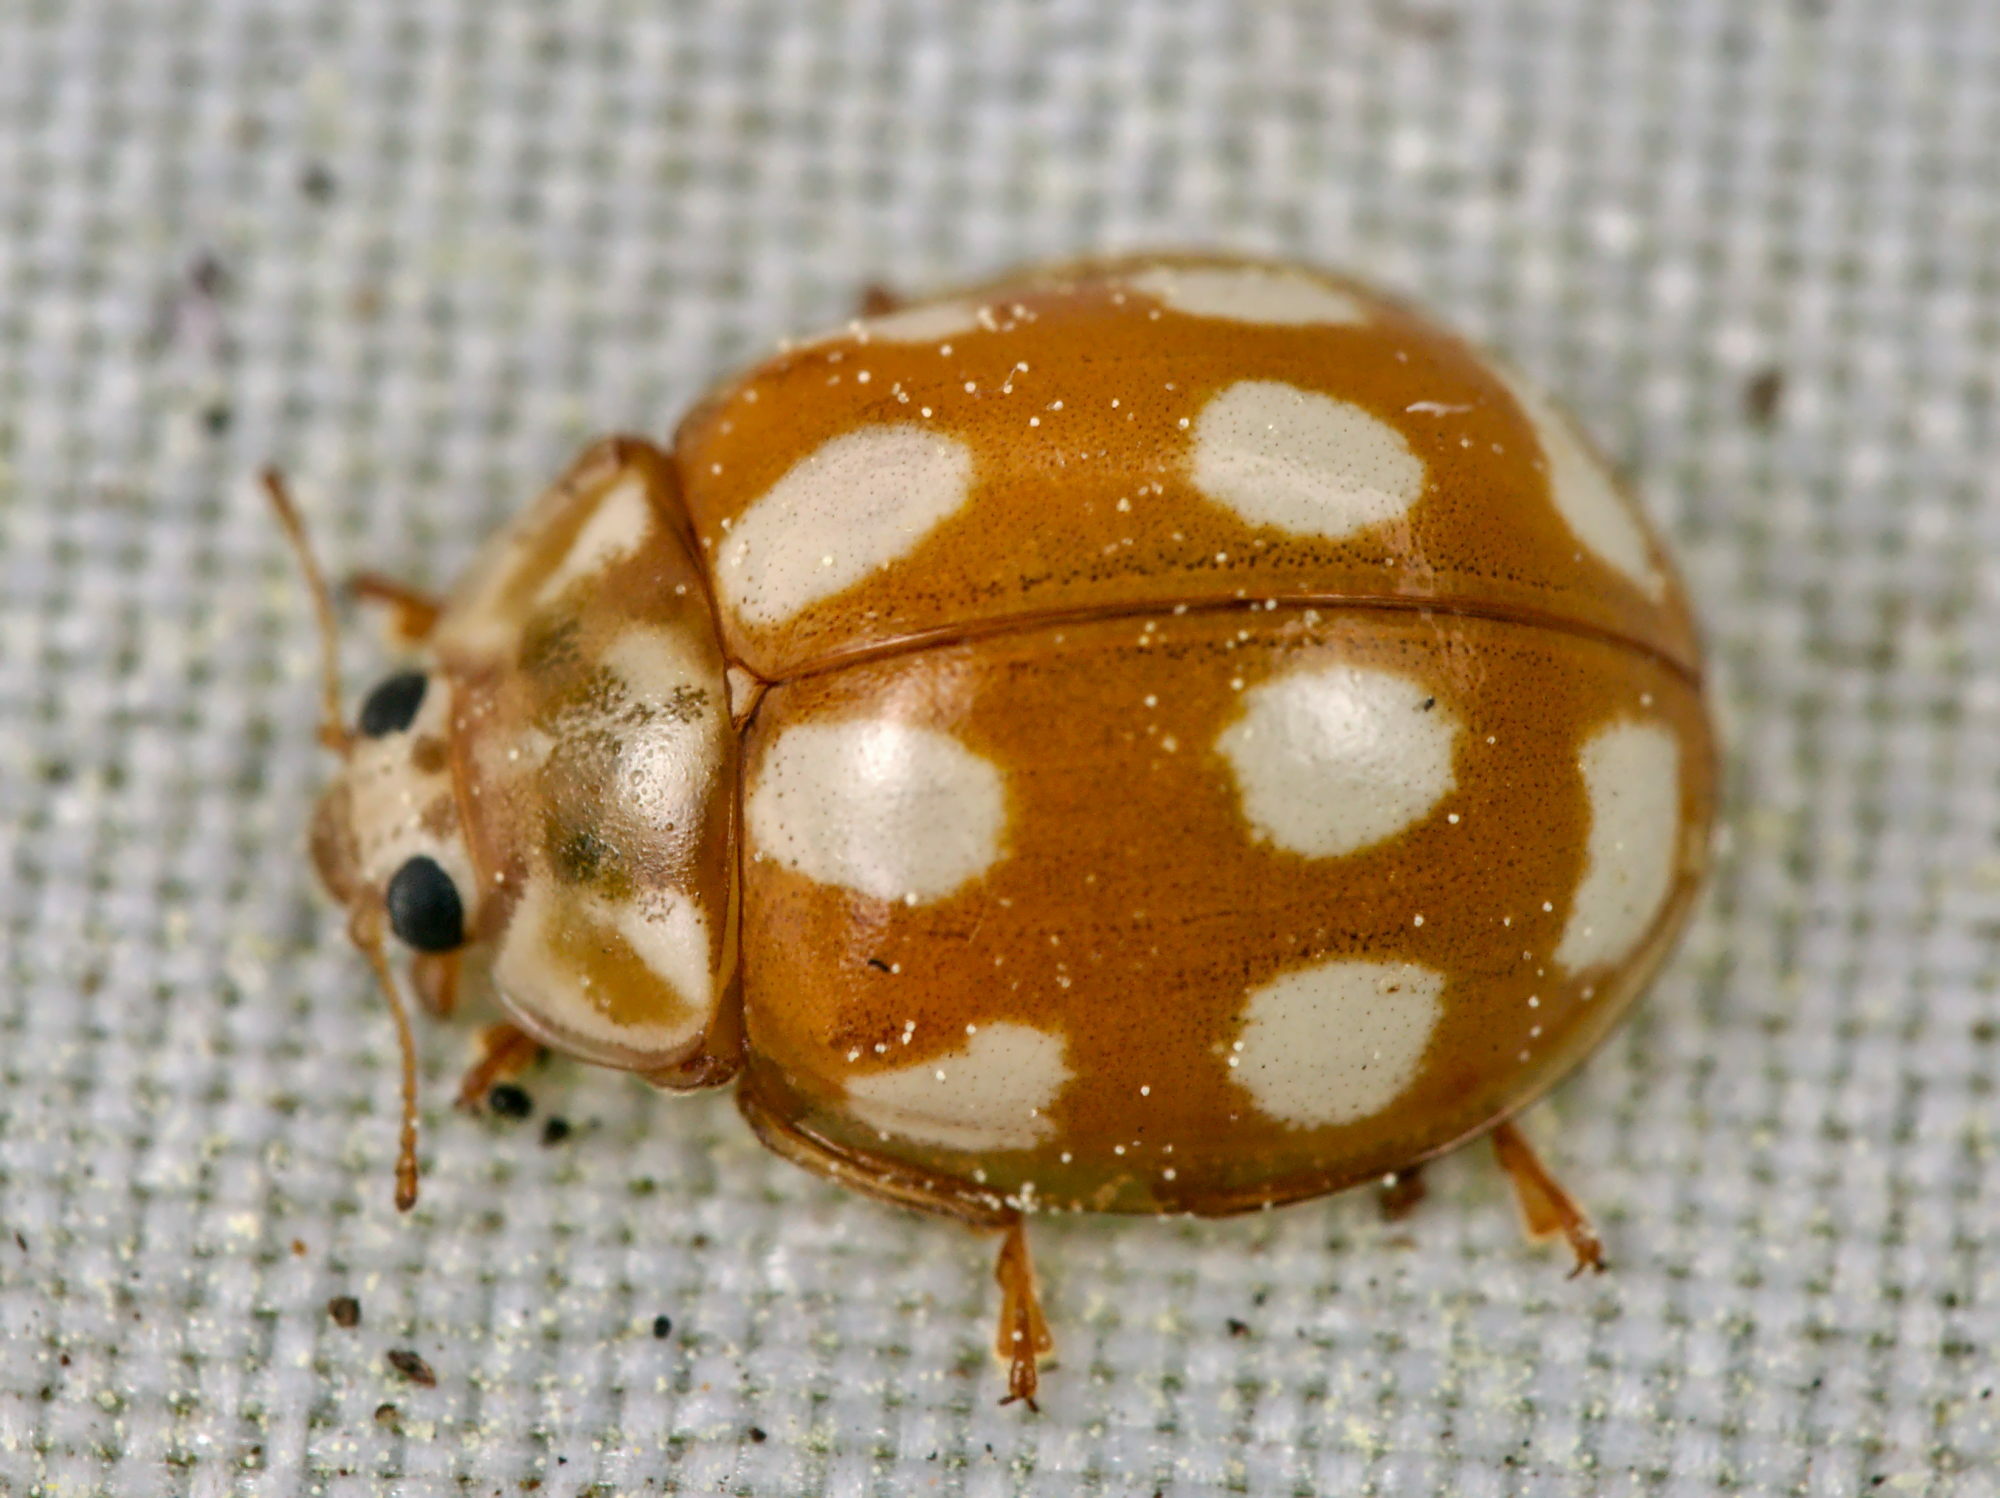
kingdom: Animalia
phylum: Arthropoda
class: Insecta
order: Coleoptera
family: Coccinellidae
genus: Calvia
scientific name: Calvia decemguttata
